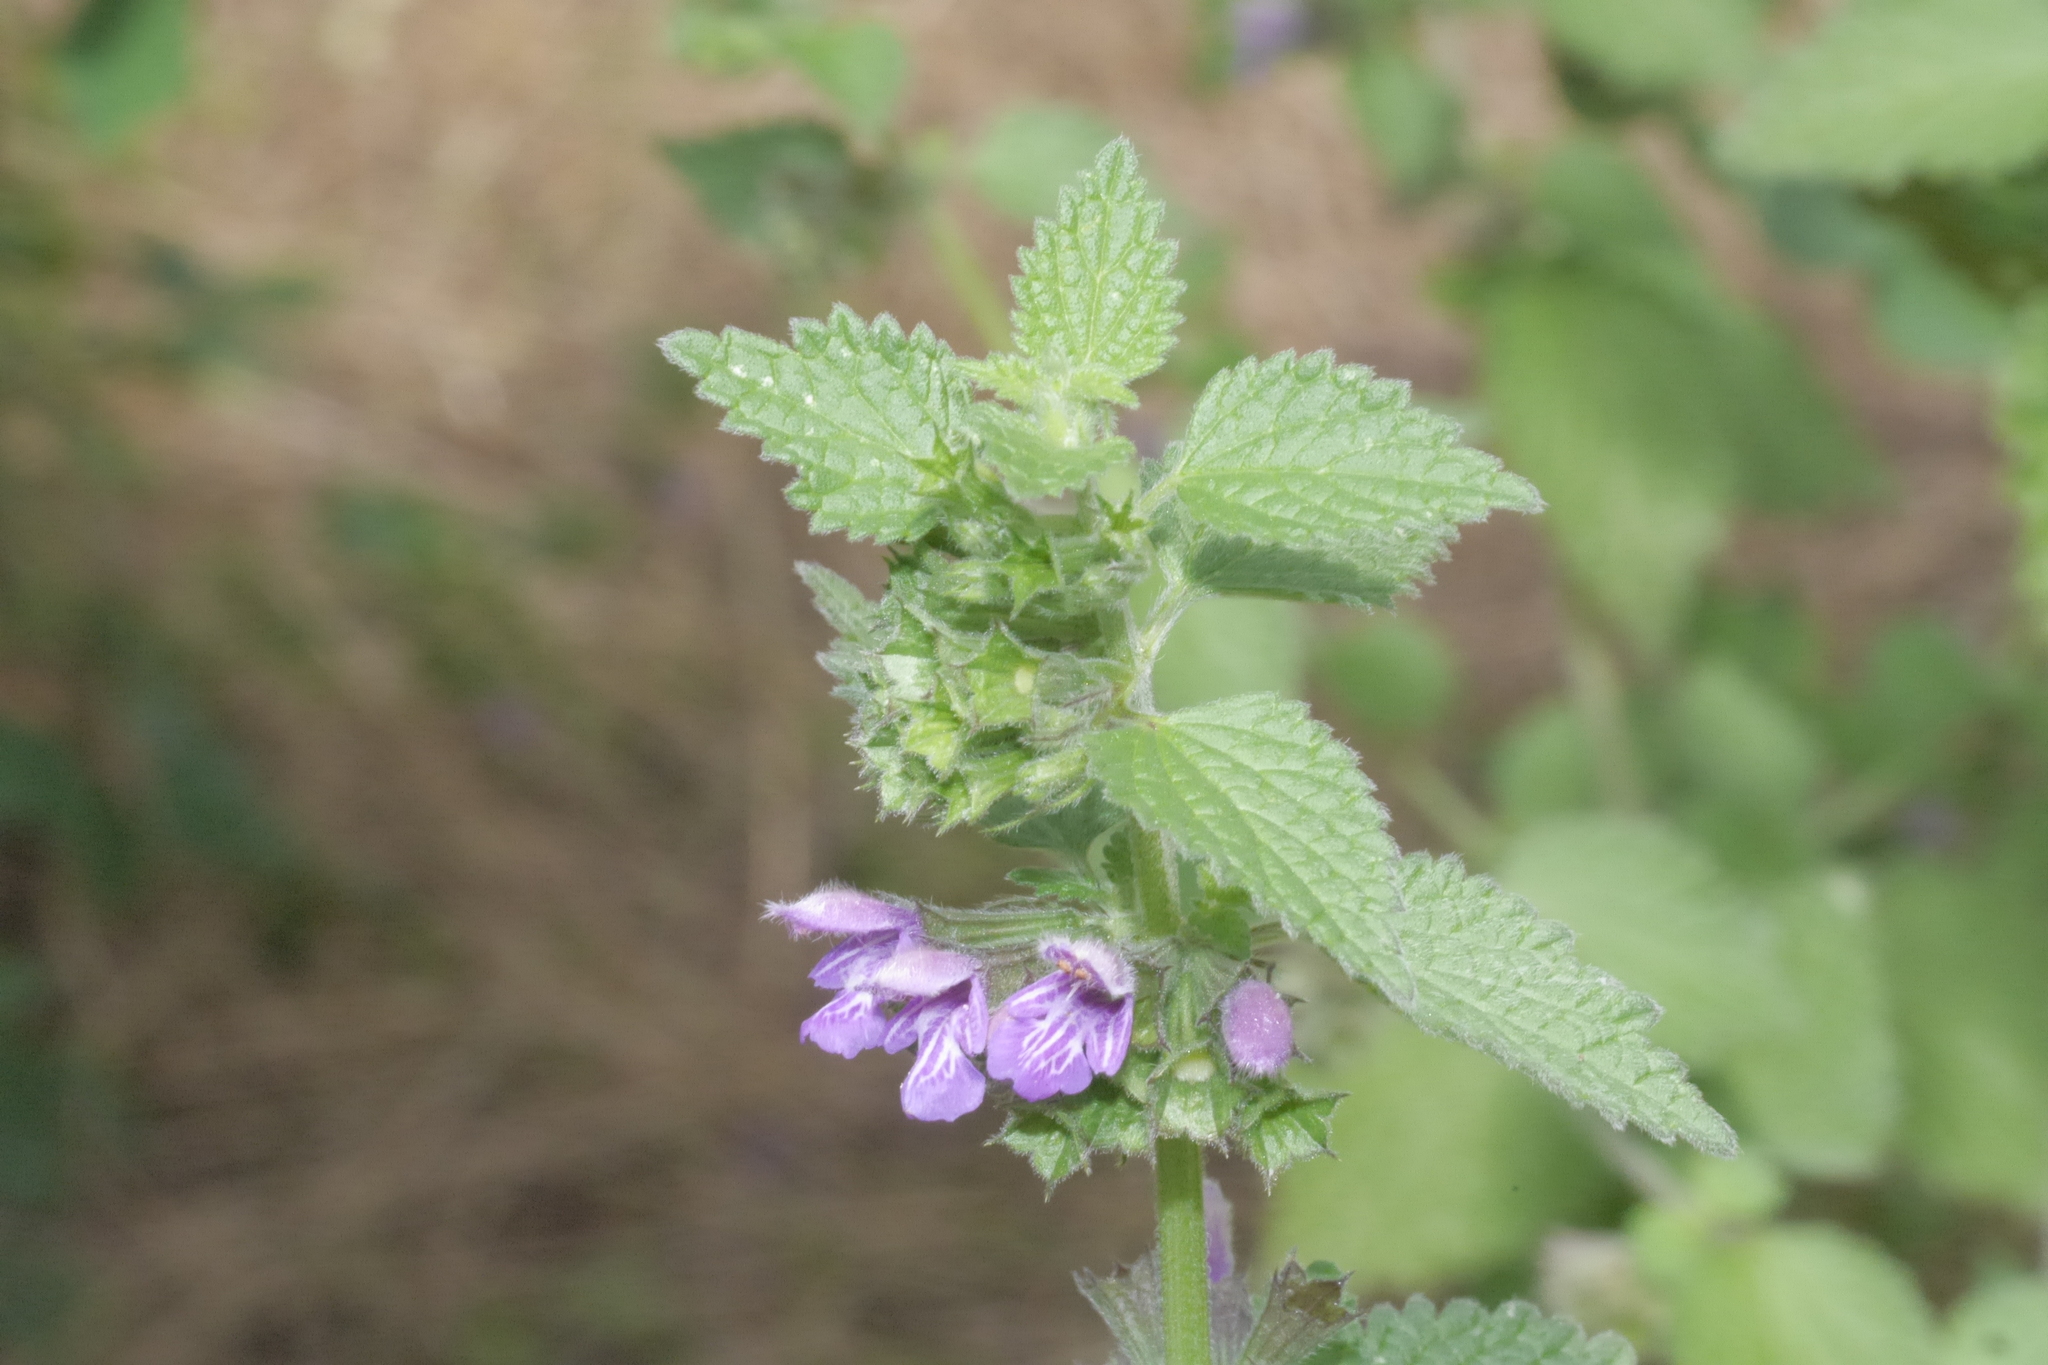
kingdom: Plantae
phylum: Tracheophyta
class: Magnoliopsida
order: Lamiales
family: Lamiaceae
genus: Ballota
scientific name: Ballota nigra
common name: Black horehound
